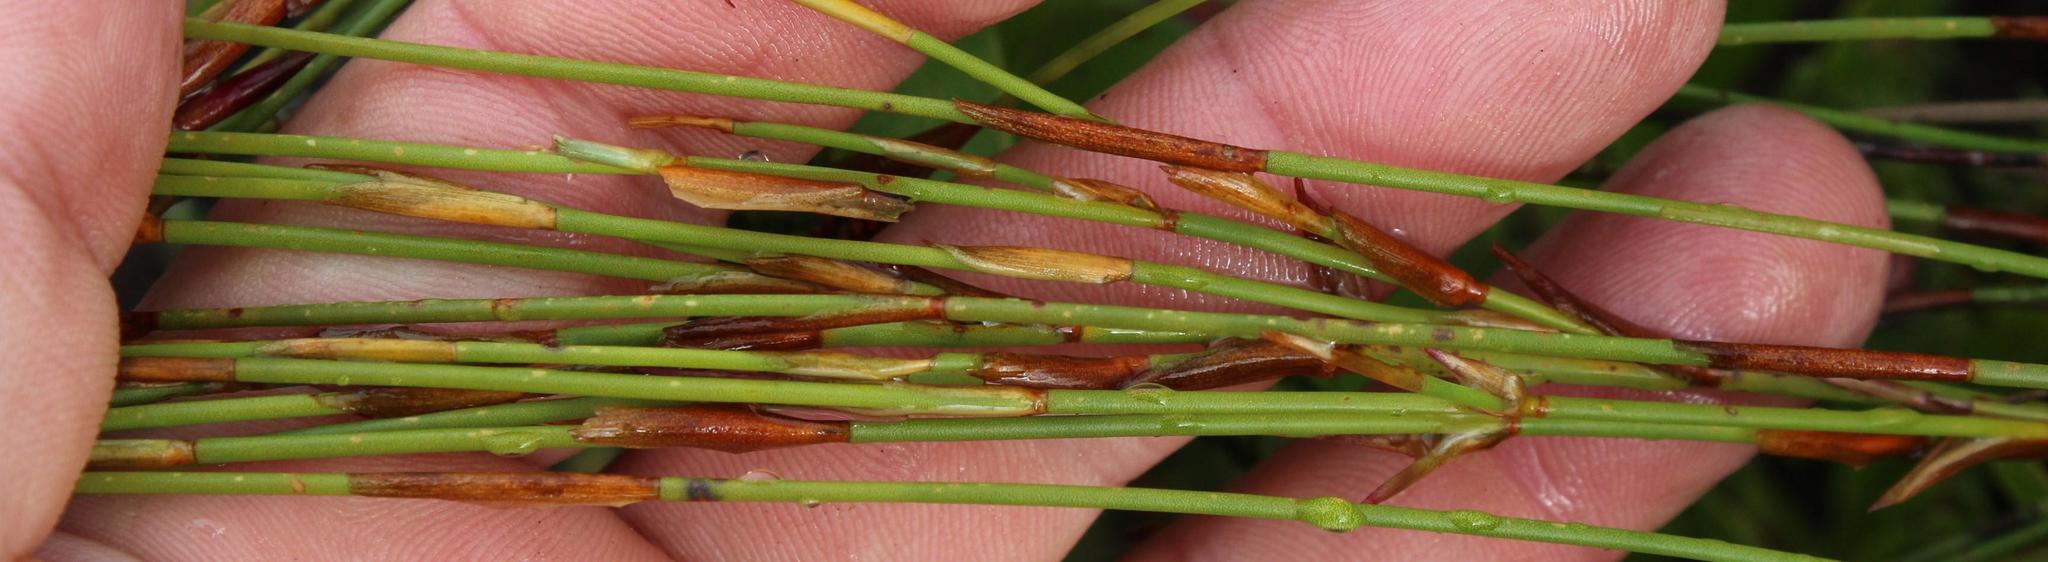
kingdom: Plantae
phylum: Tracheophyta
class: Liliopsida
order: Poales
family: Restionaceae
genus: Elegia
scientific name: Elegia stipularis
